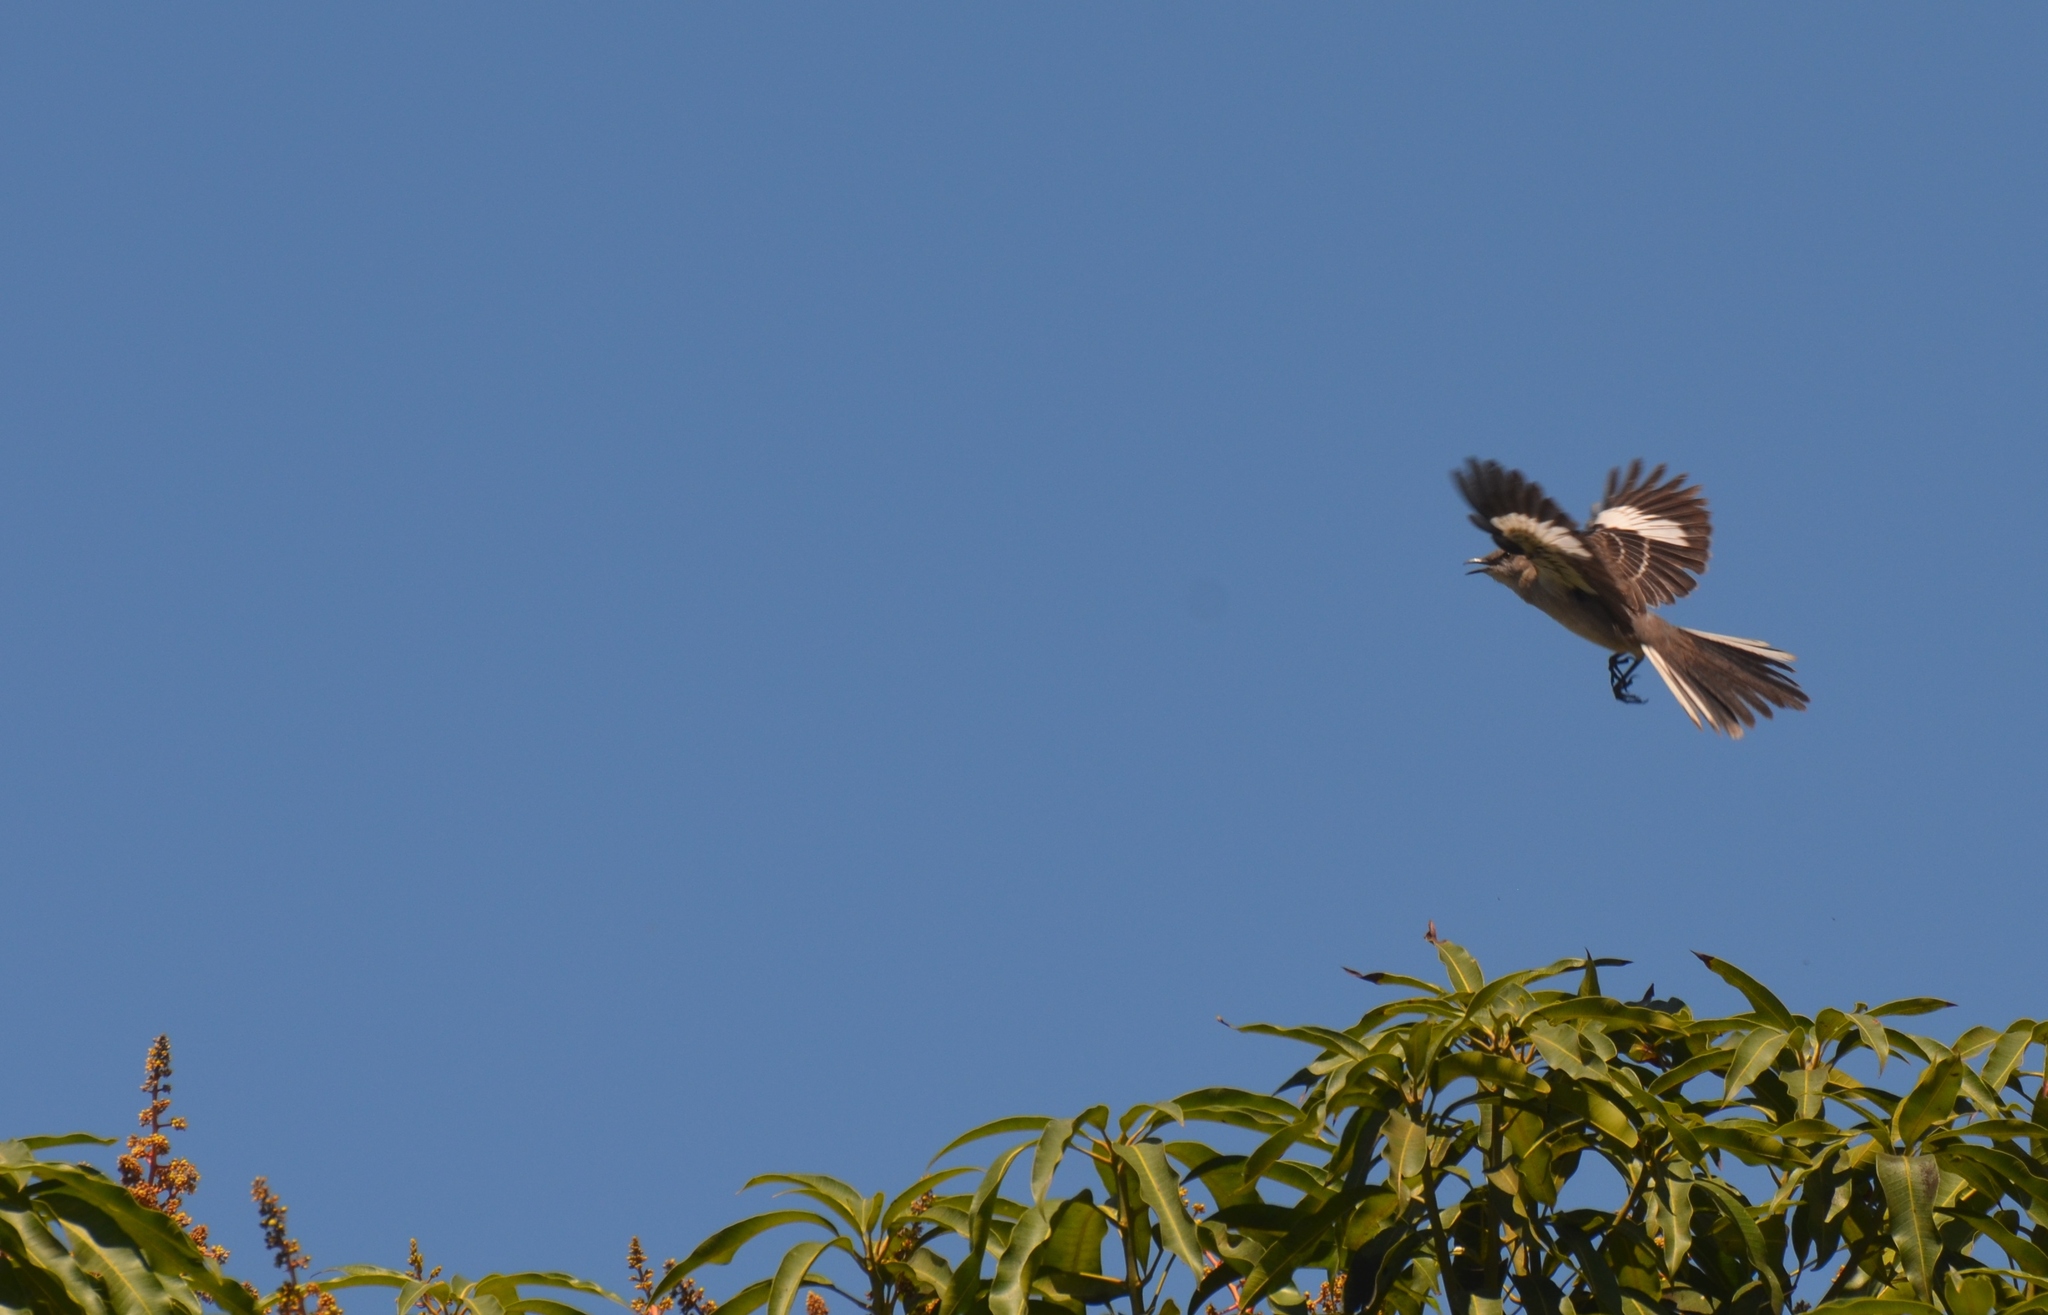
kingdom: Animalia
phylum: Chordata
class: Aves
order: Passeriformes
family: Mimidae
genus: Mimus
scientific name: Mimus polyglottos
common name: Northern mockingbird
